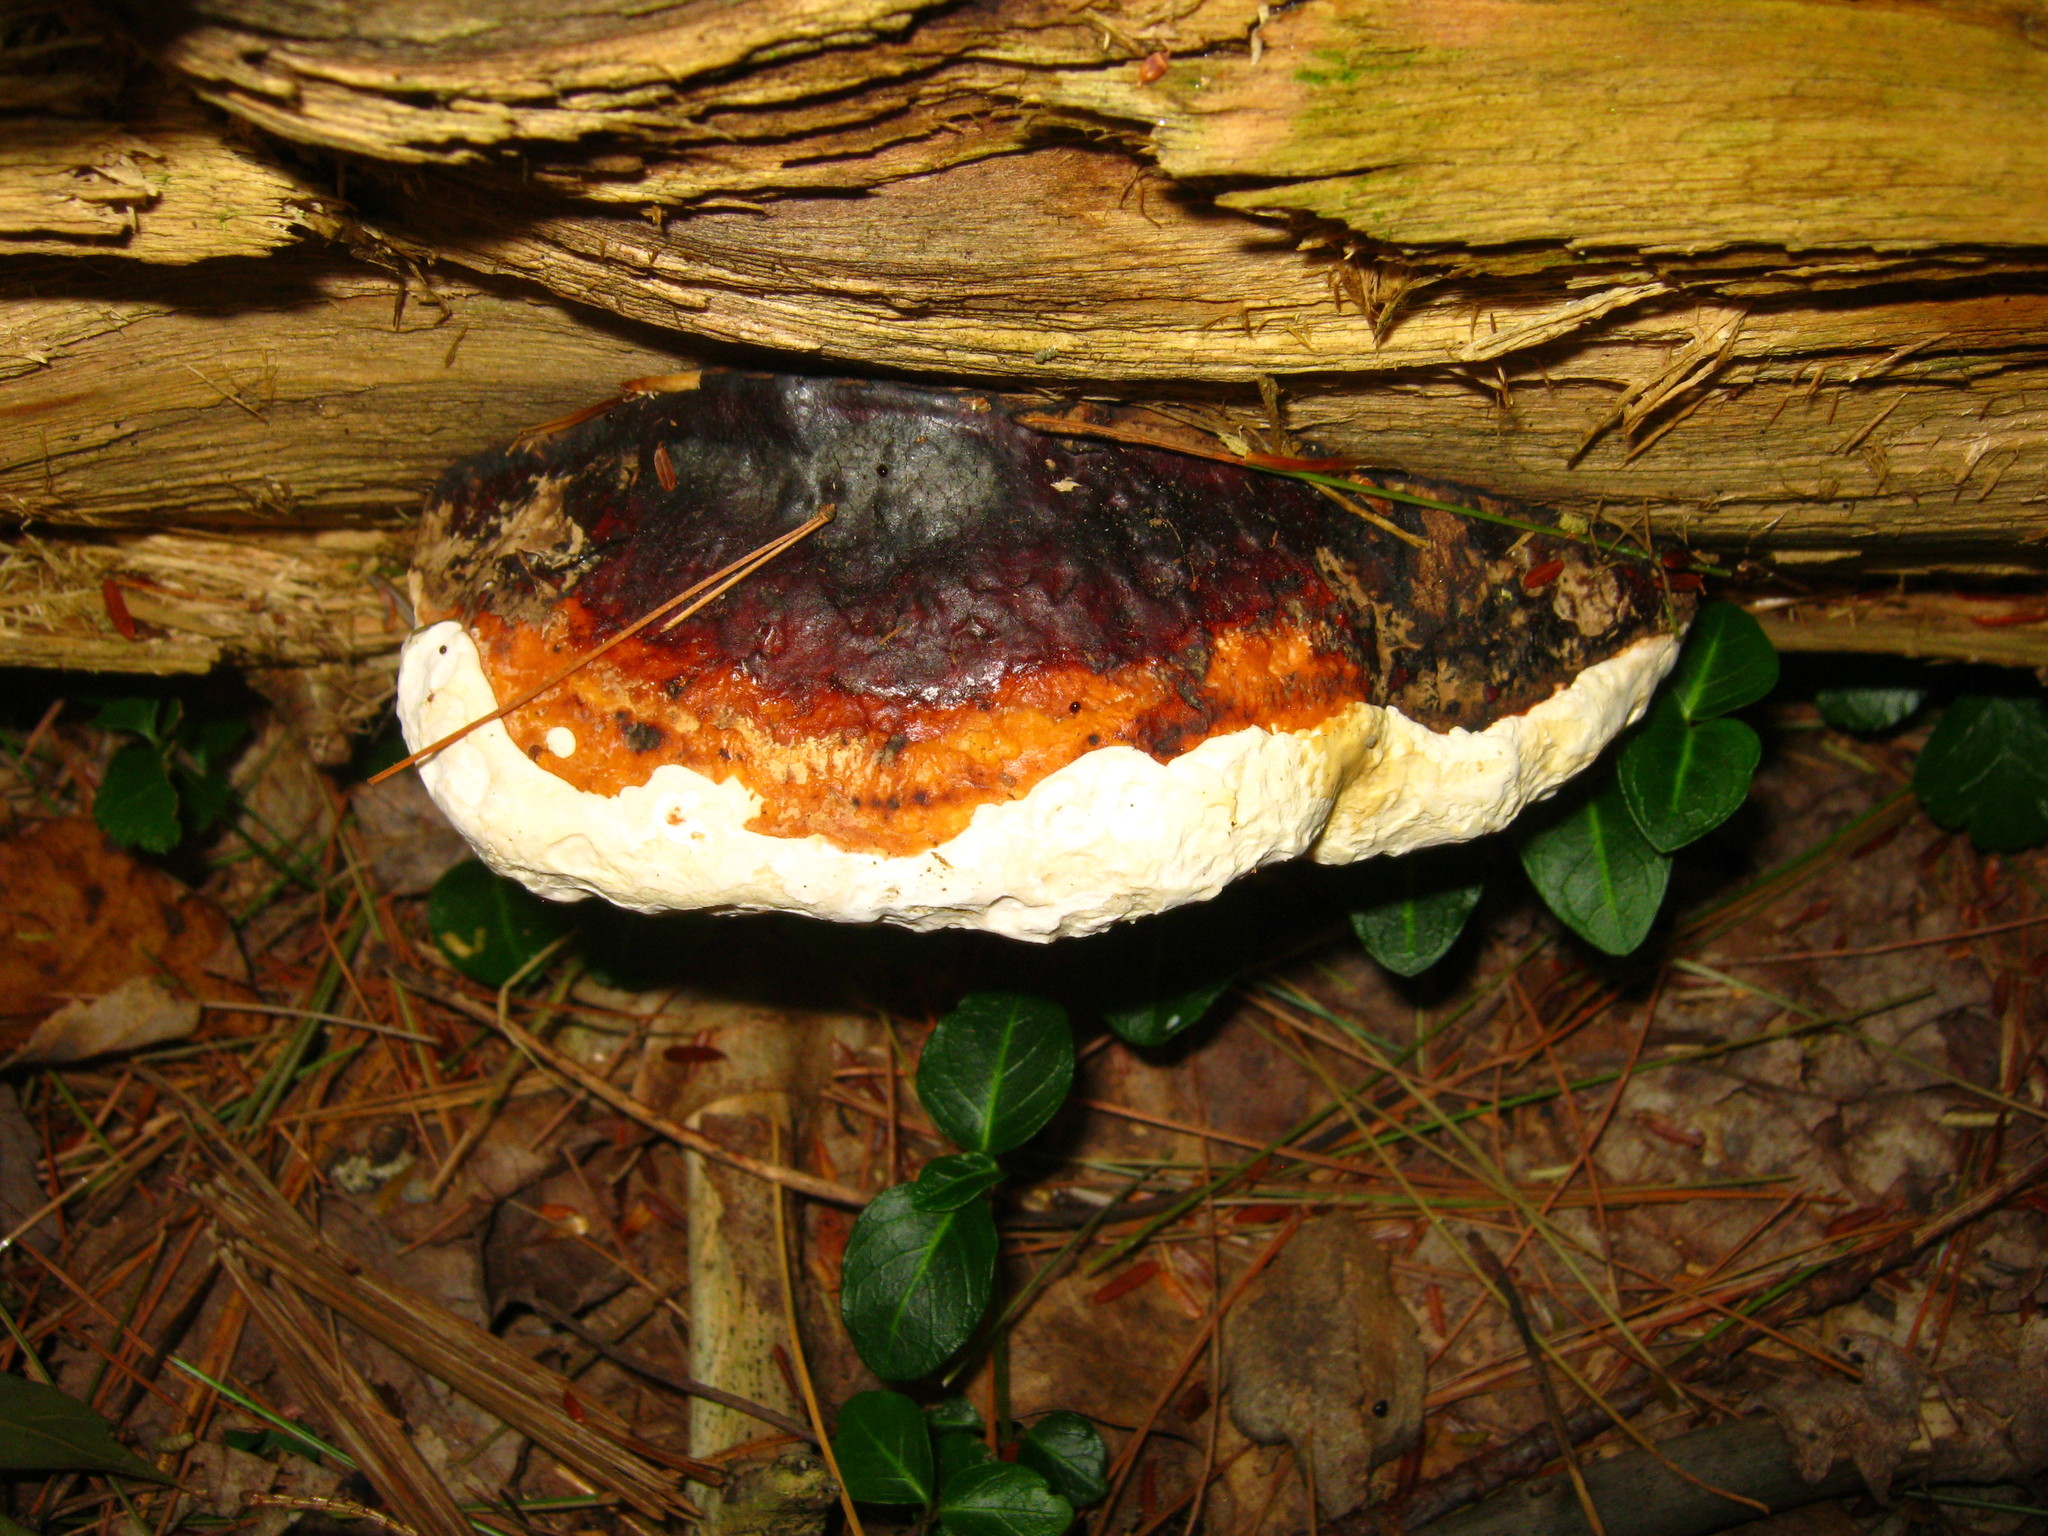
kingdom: Fungi
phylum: Basidiomycota
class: Agaricomycetes
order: Polyporales
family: Fomitopsidaceae
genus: Fomitopsis
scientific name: Fomitopsis mounceae
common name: Northern red belt
